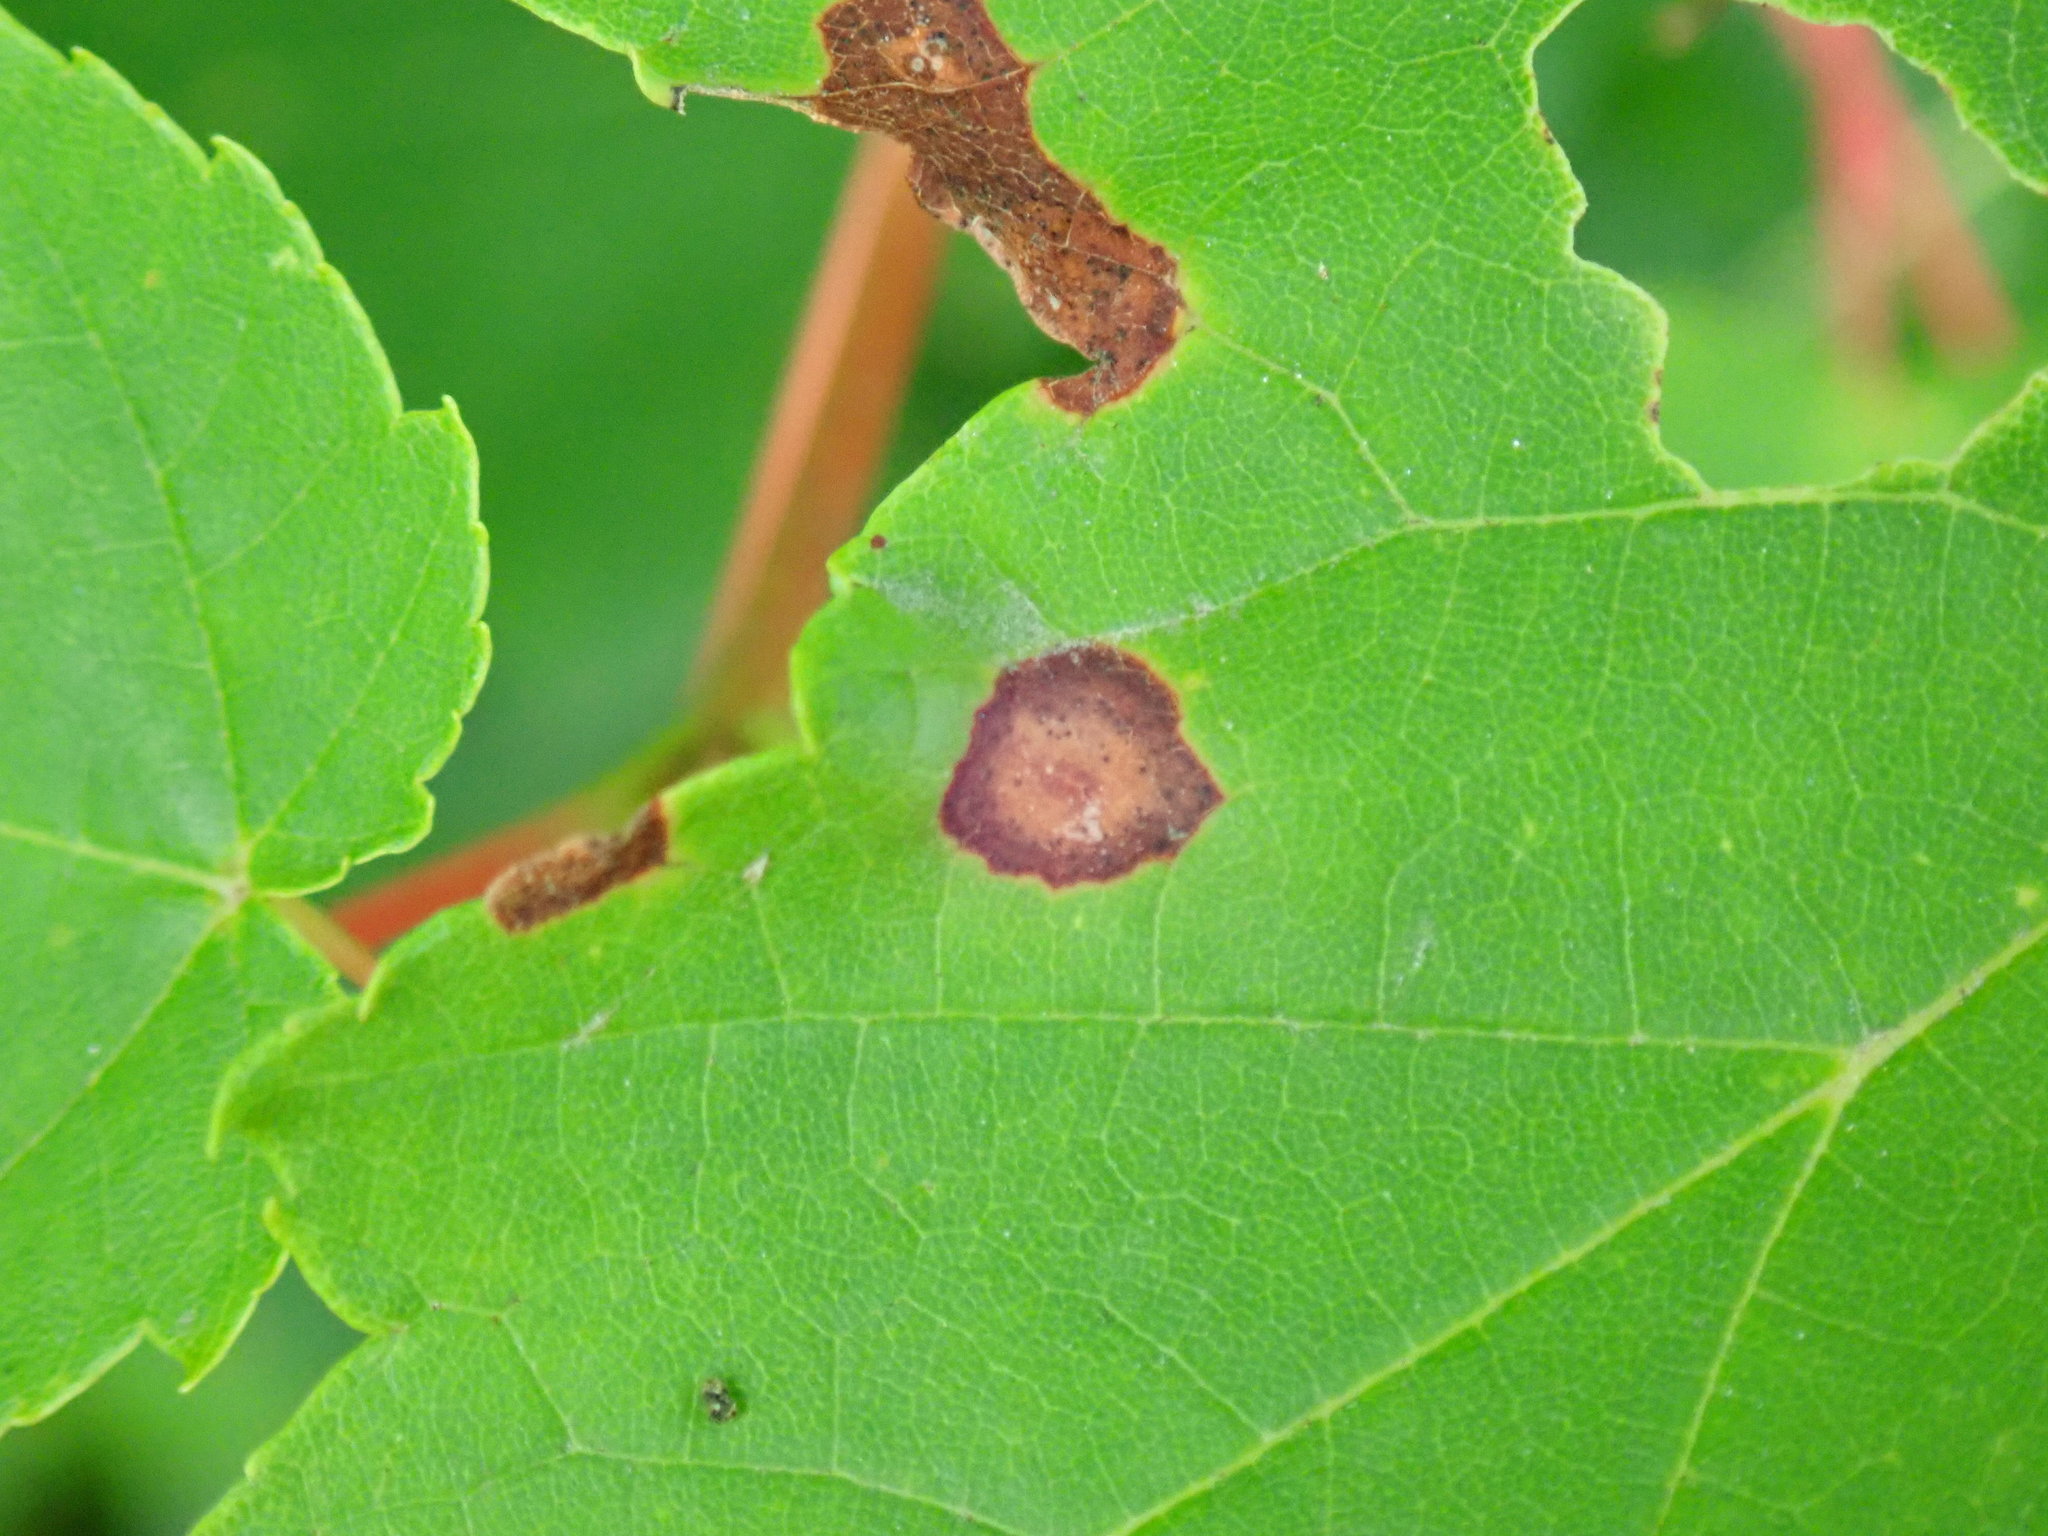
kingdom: Animalia
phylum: Arthropoda
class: Insecta
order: Diptera
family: Cecidomyiidae
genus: Acericecis
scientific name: Acericecis ocellaris
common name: Ocellate gall midge
